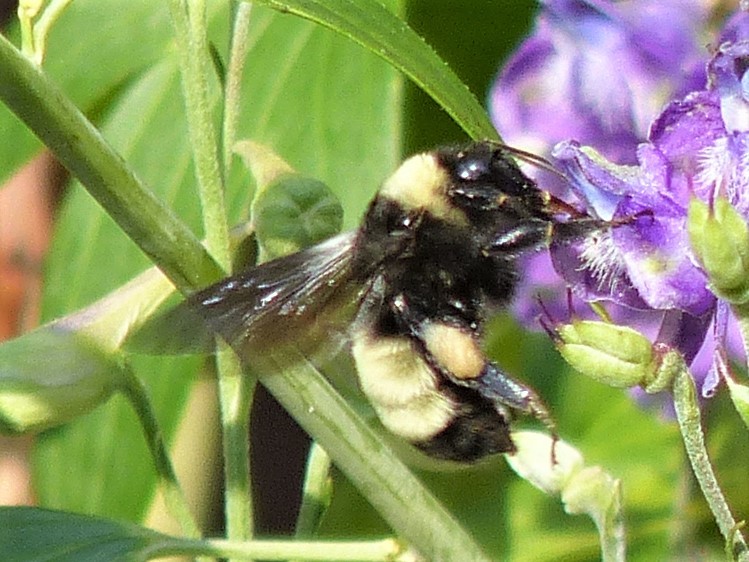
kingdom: Animalia
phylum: Arthropoda
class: Insecta
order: Hymenoptera
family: Apidae
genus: Bombus
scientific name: Bombus pensylvanicus
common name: Bumble bee
